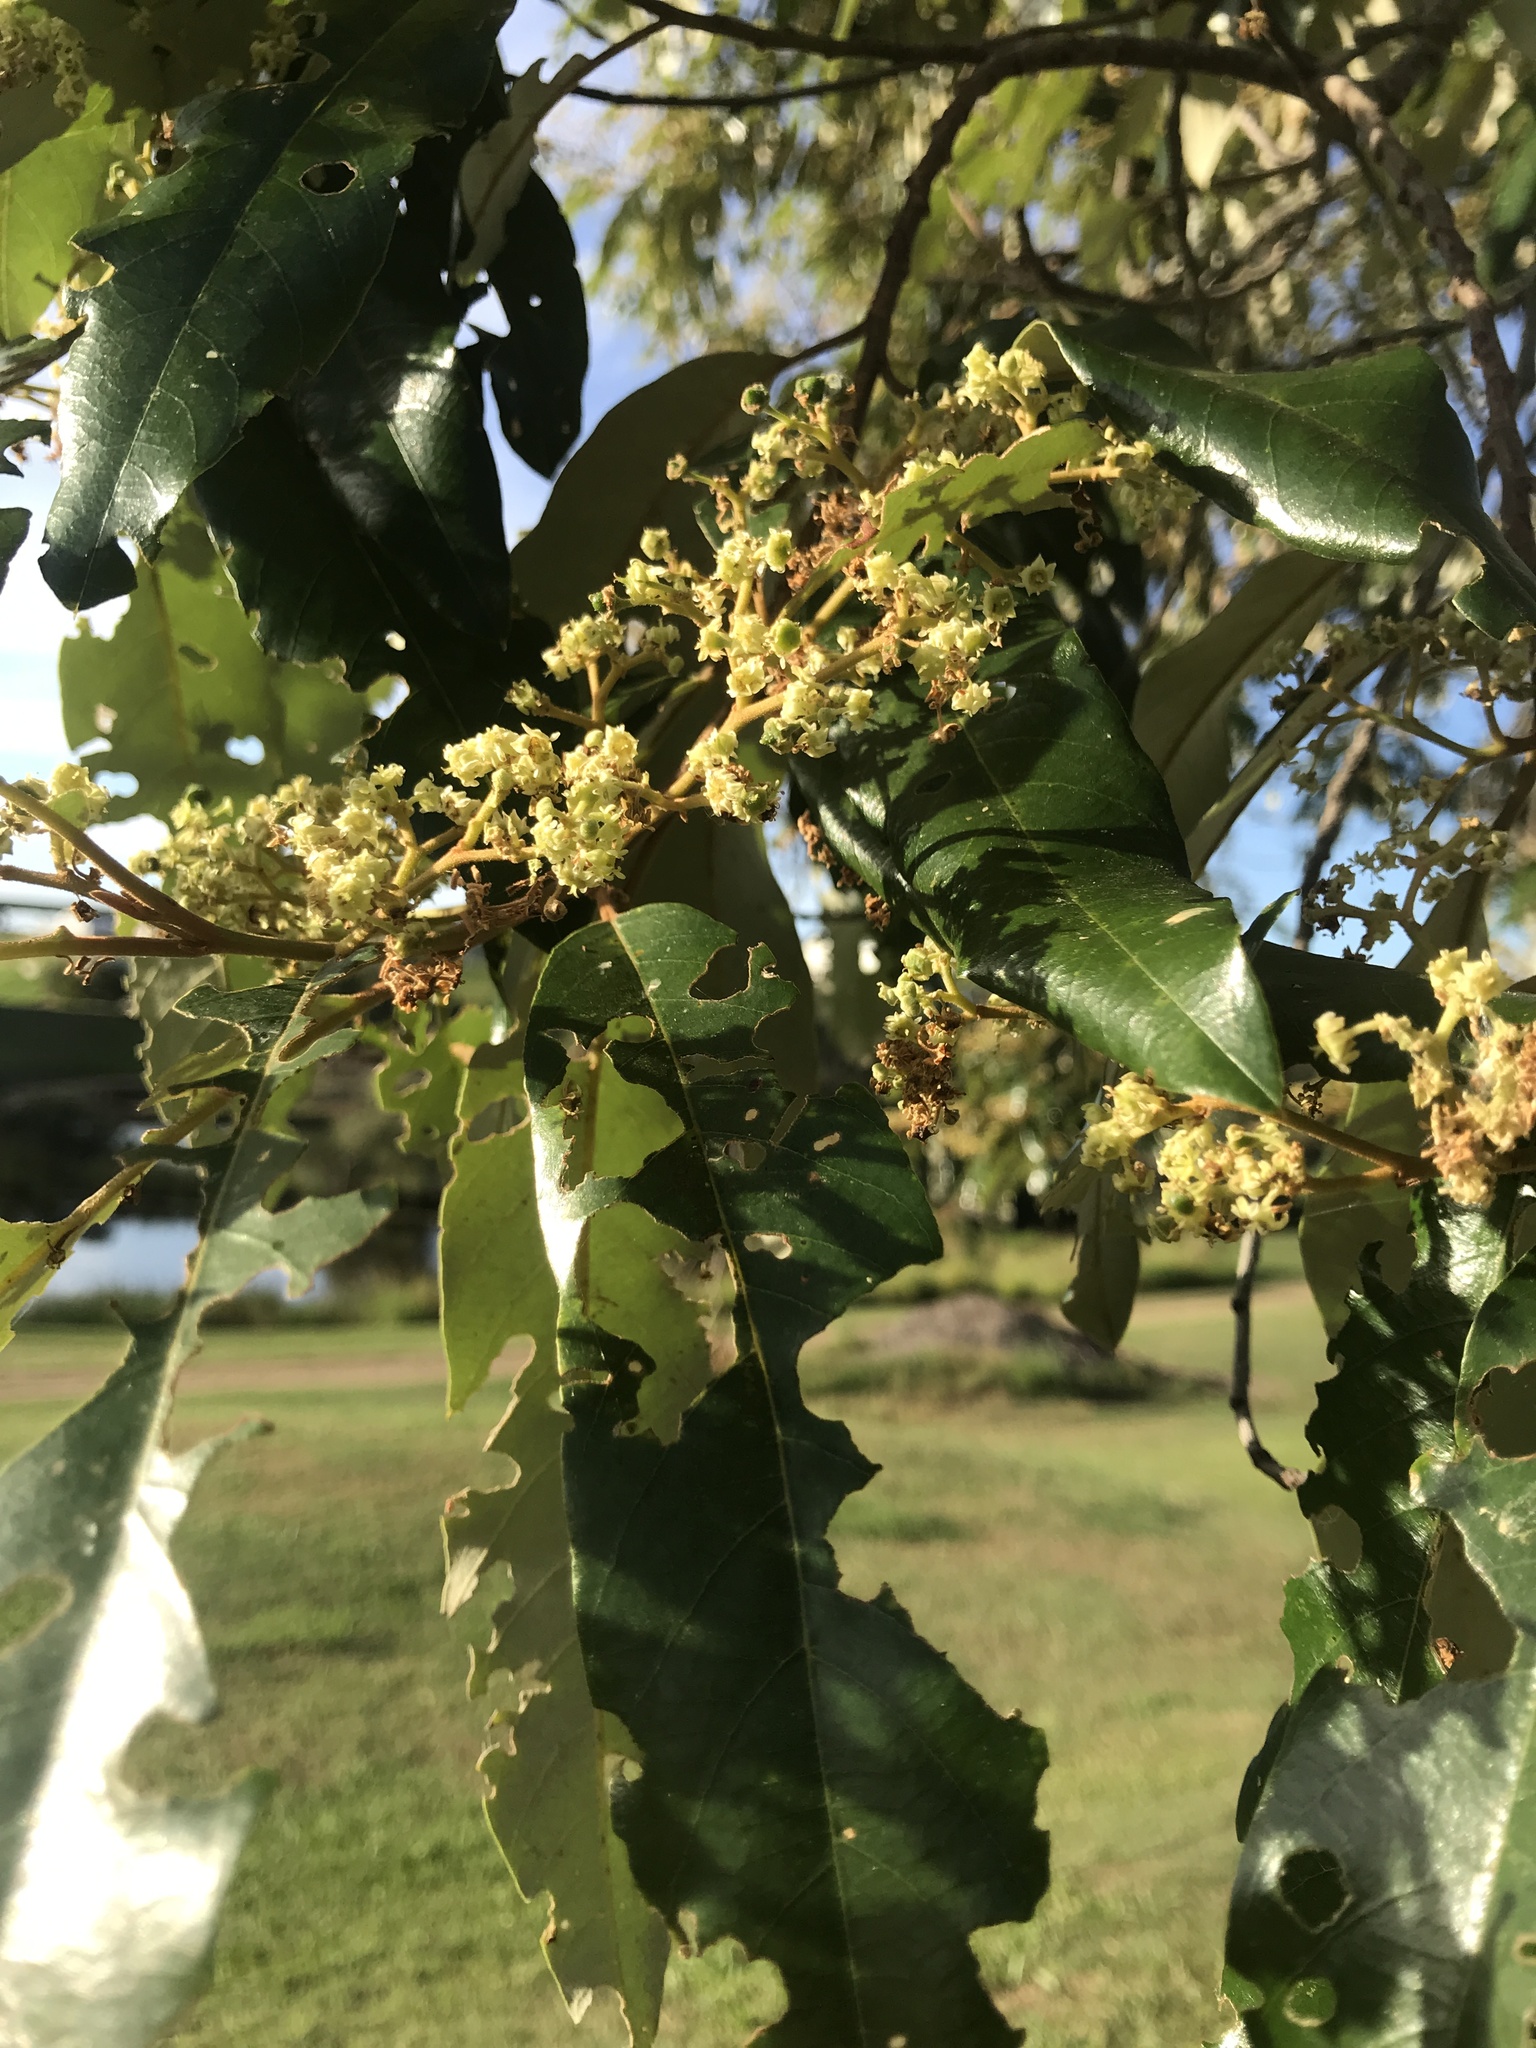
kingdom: Plantae
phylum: Tracheophyta
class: Magnoliopsida
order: Rosales
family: Rhamnaceae
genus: Alphitonia
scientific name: Alphitonia excelsa
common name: Red ash
